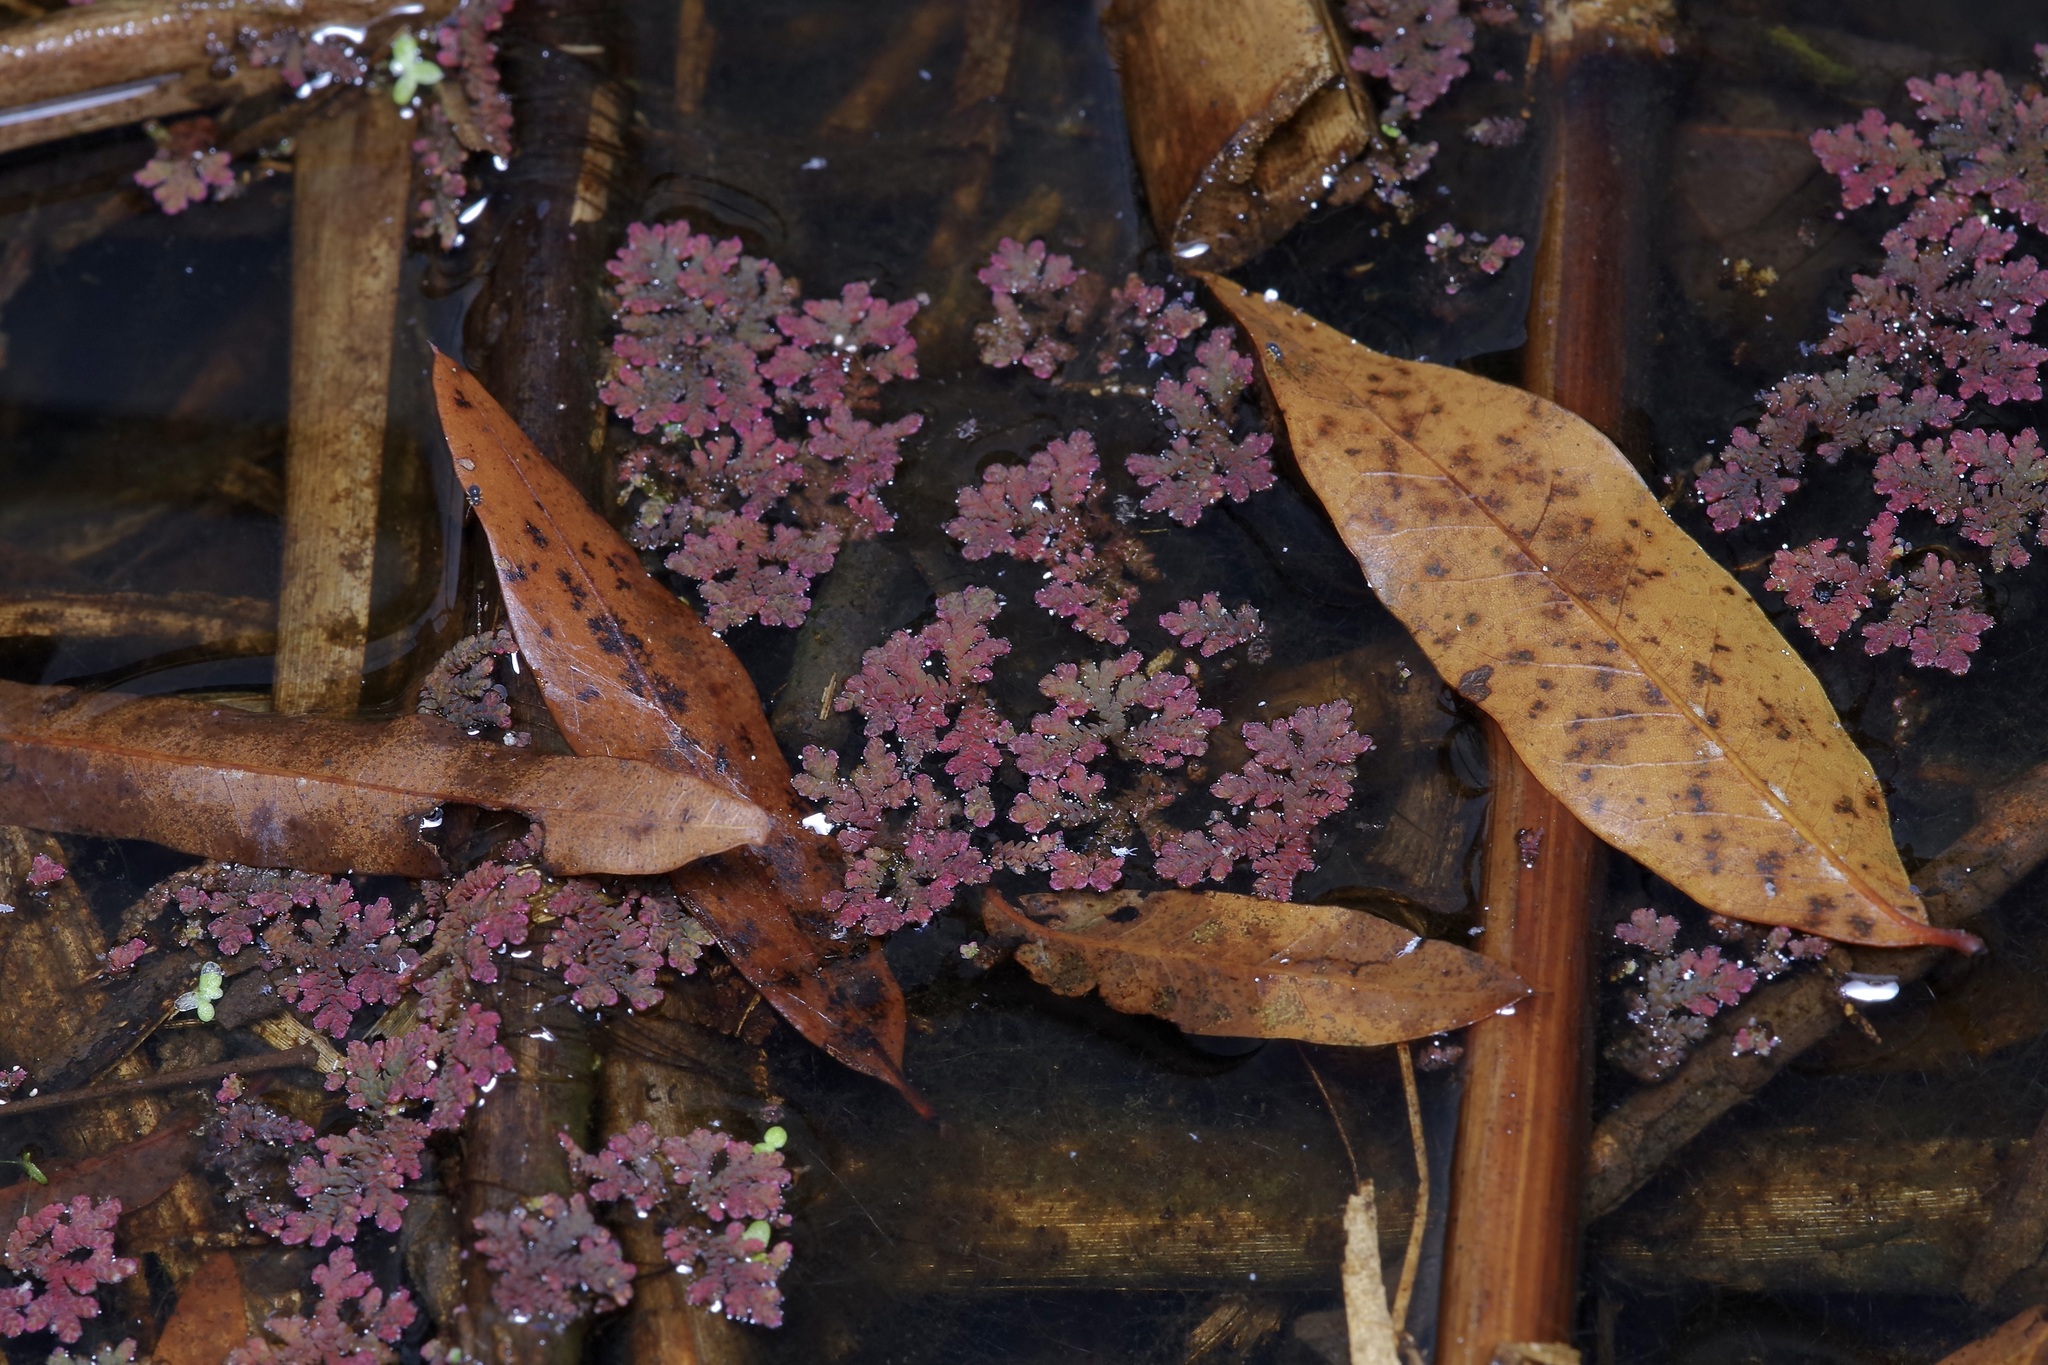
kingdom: Plantae
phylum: Tracheophyta
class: Polypodiopsida
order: Salviniales
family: Salviniaceae
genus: Azolla
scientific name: Azolla caroliniana
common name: Carolina mosquitofern
